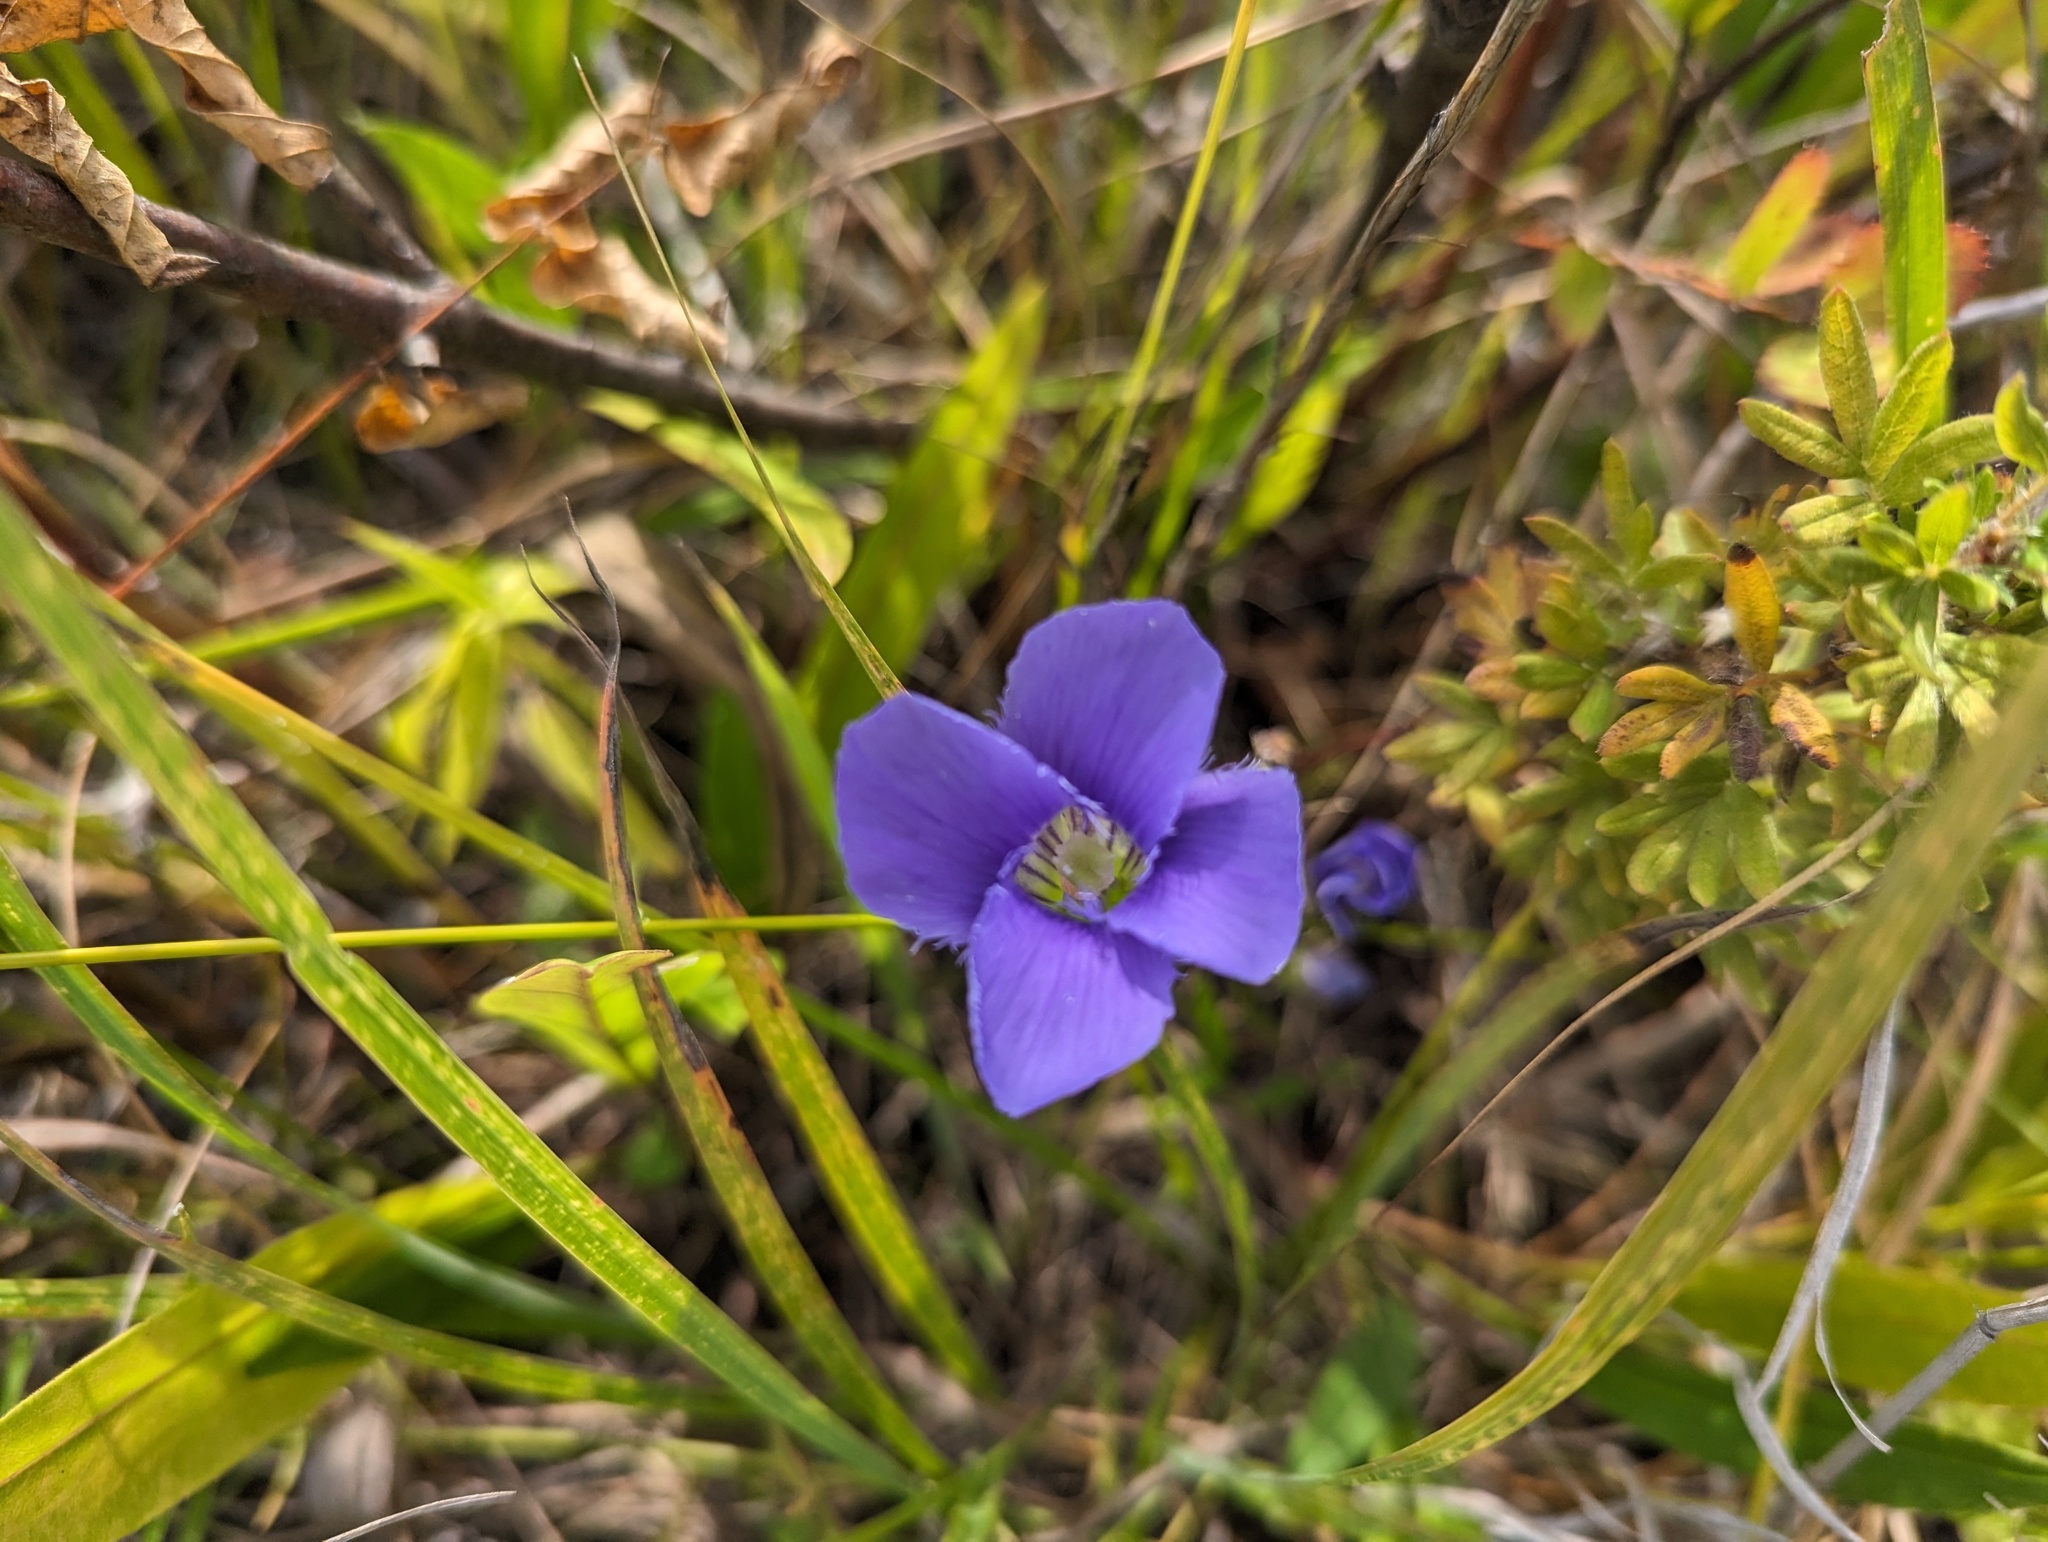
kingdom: Plantae
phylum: Tracheophyta
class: Magnoliopsida
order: Gentianales
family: Gentianaceae
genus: Gentianopsis
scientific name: Gentianopsis virgata
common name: Lesser fringed-gentian
